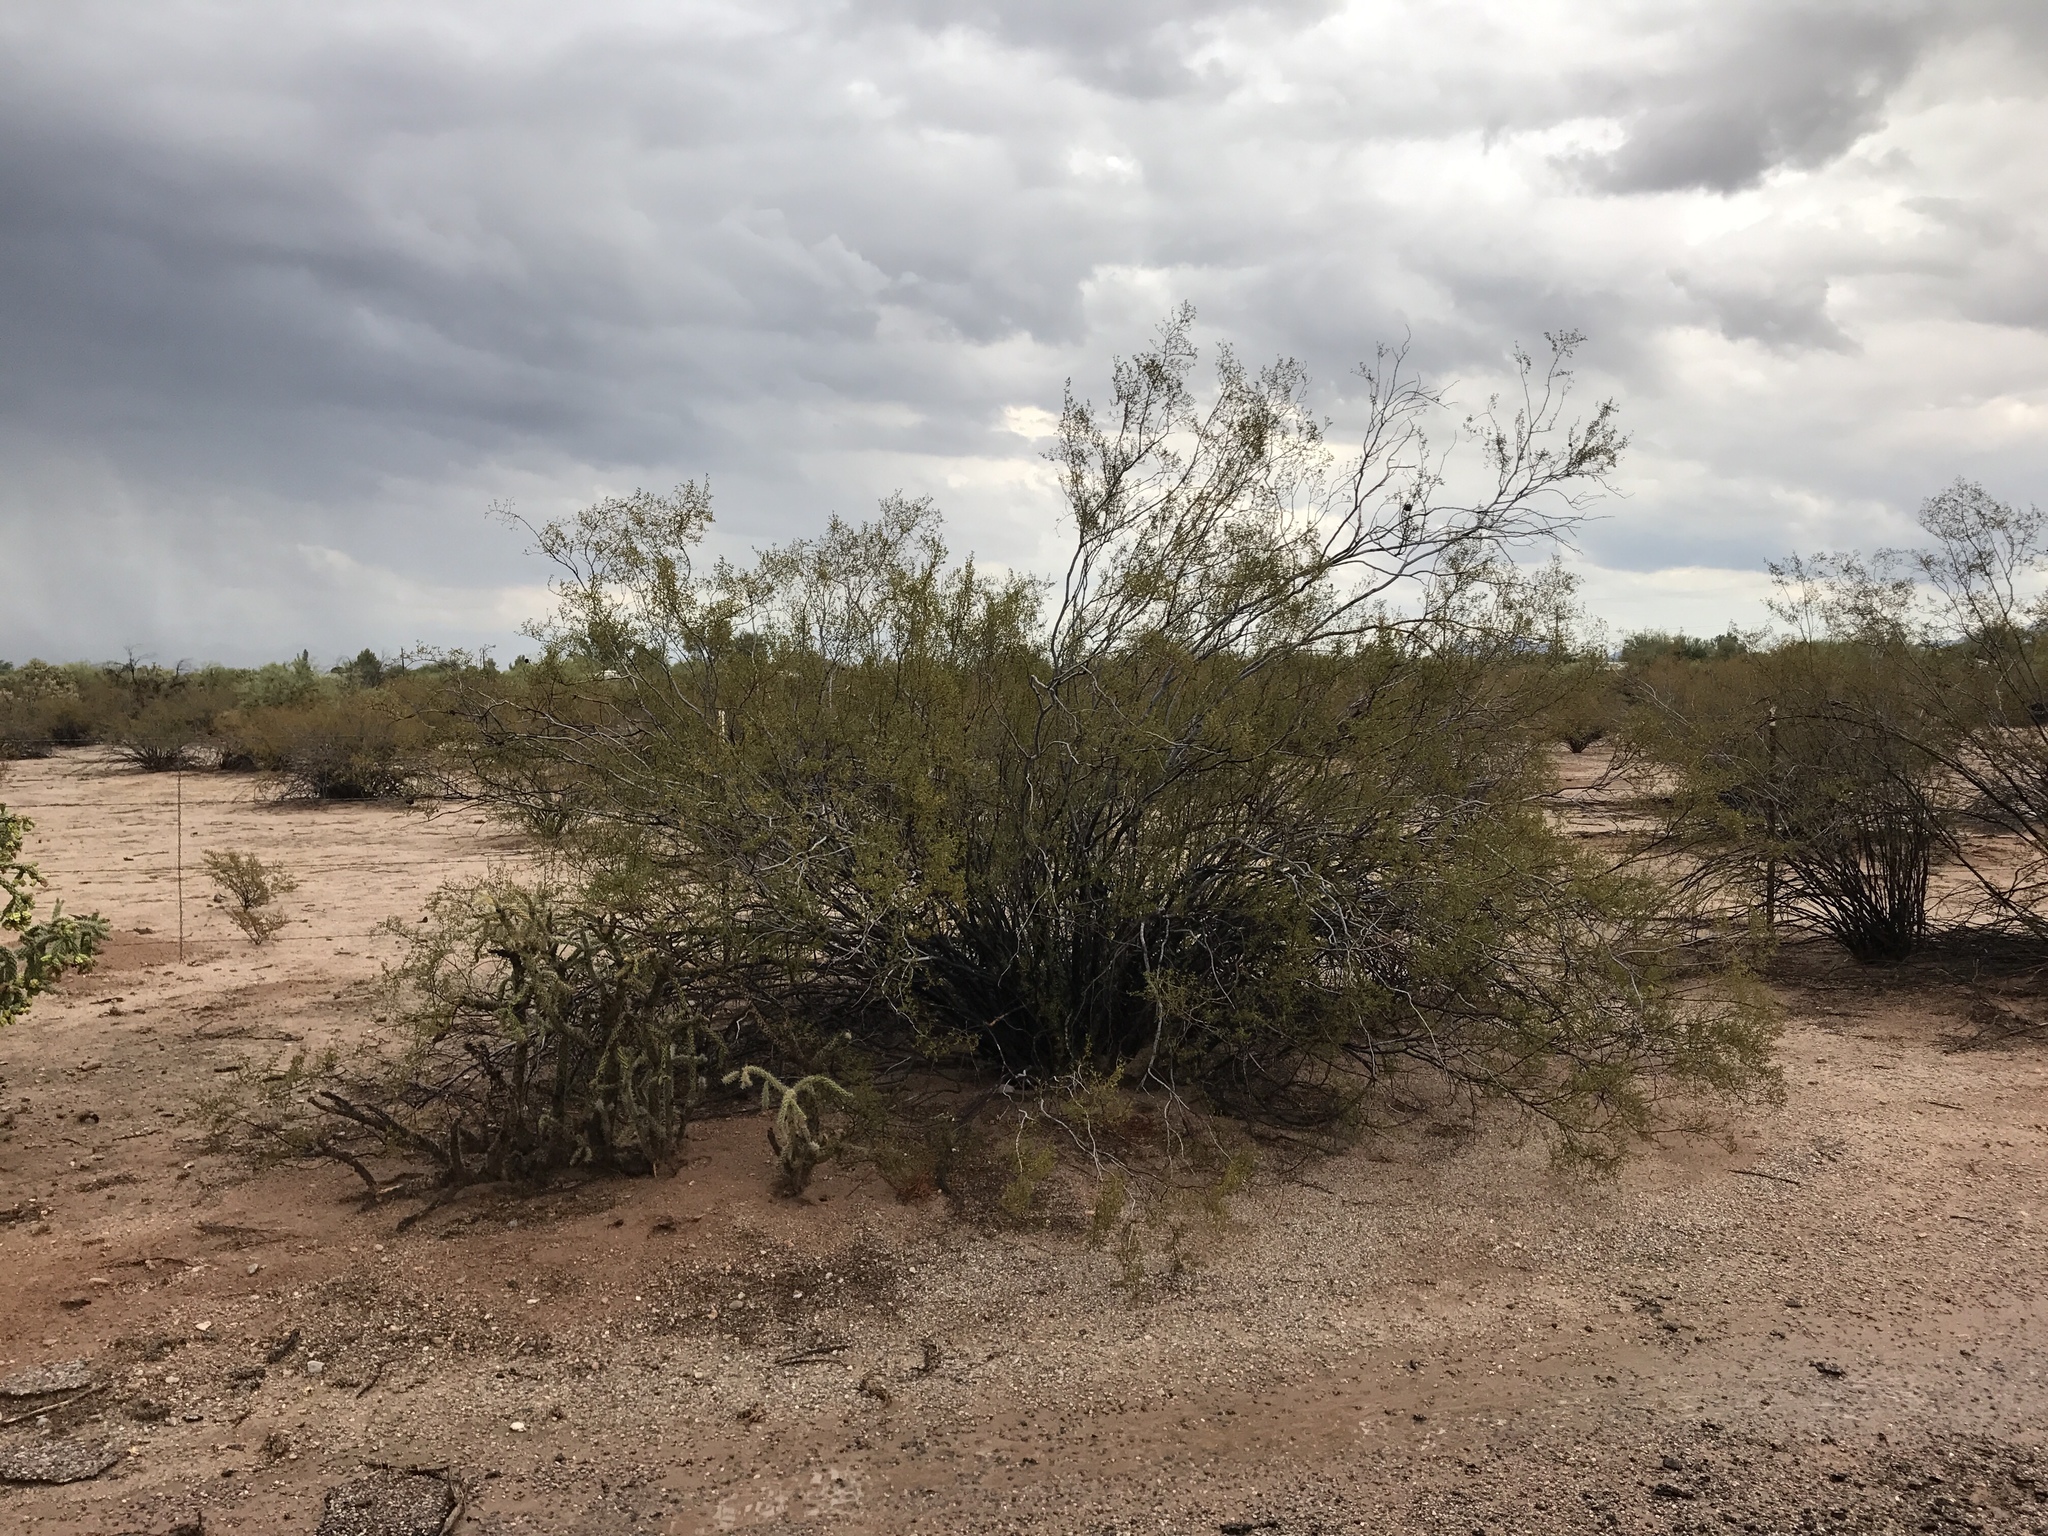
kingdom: Plantae
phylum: Tracheophyta
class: Magnoliopsida
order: Zygophyllales
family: Zygophyllaceae
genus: Larrea
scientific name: Larrea tridentata
